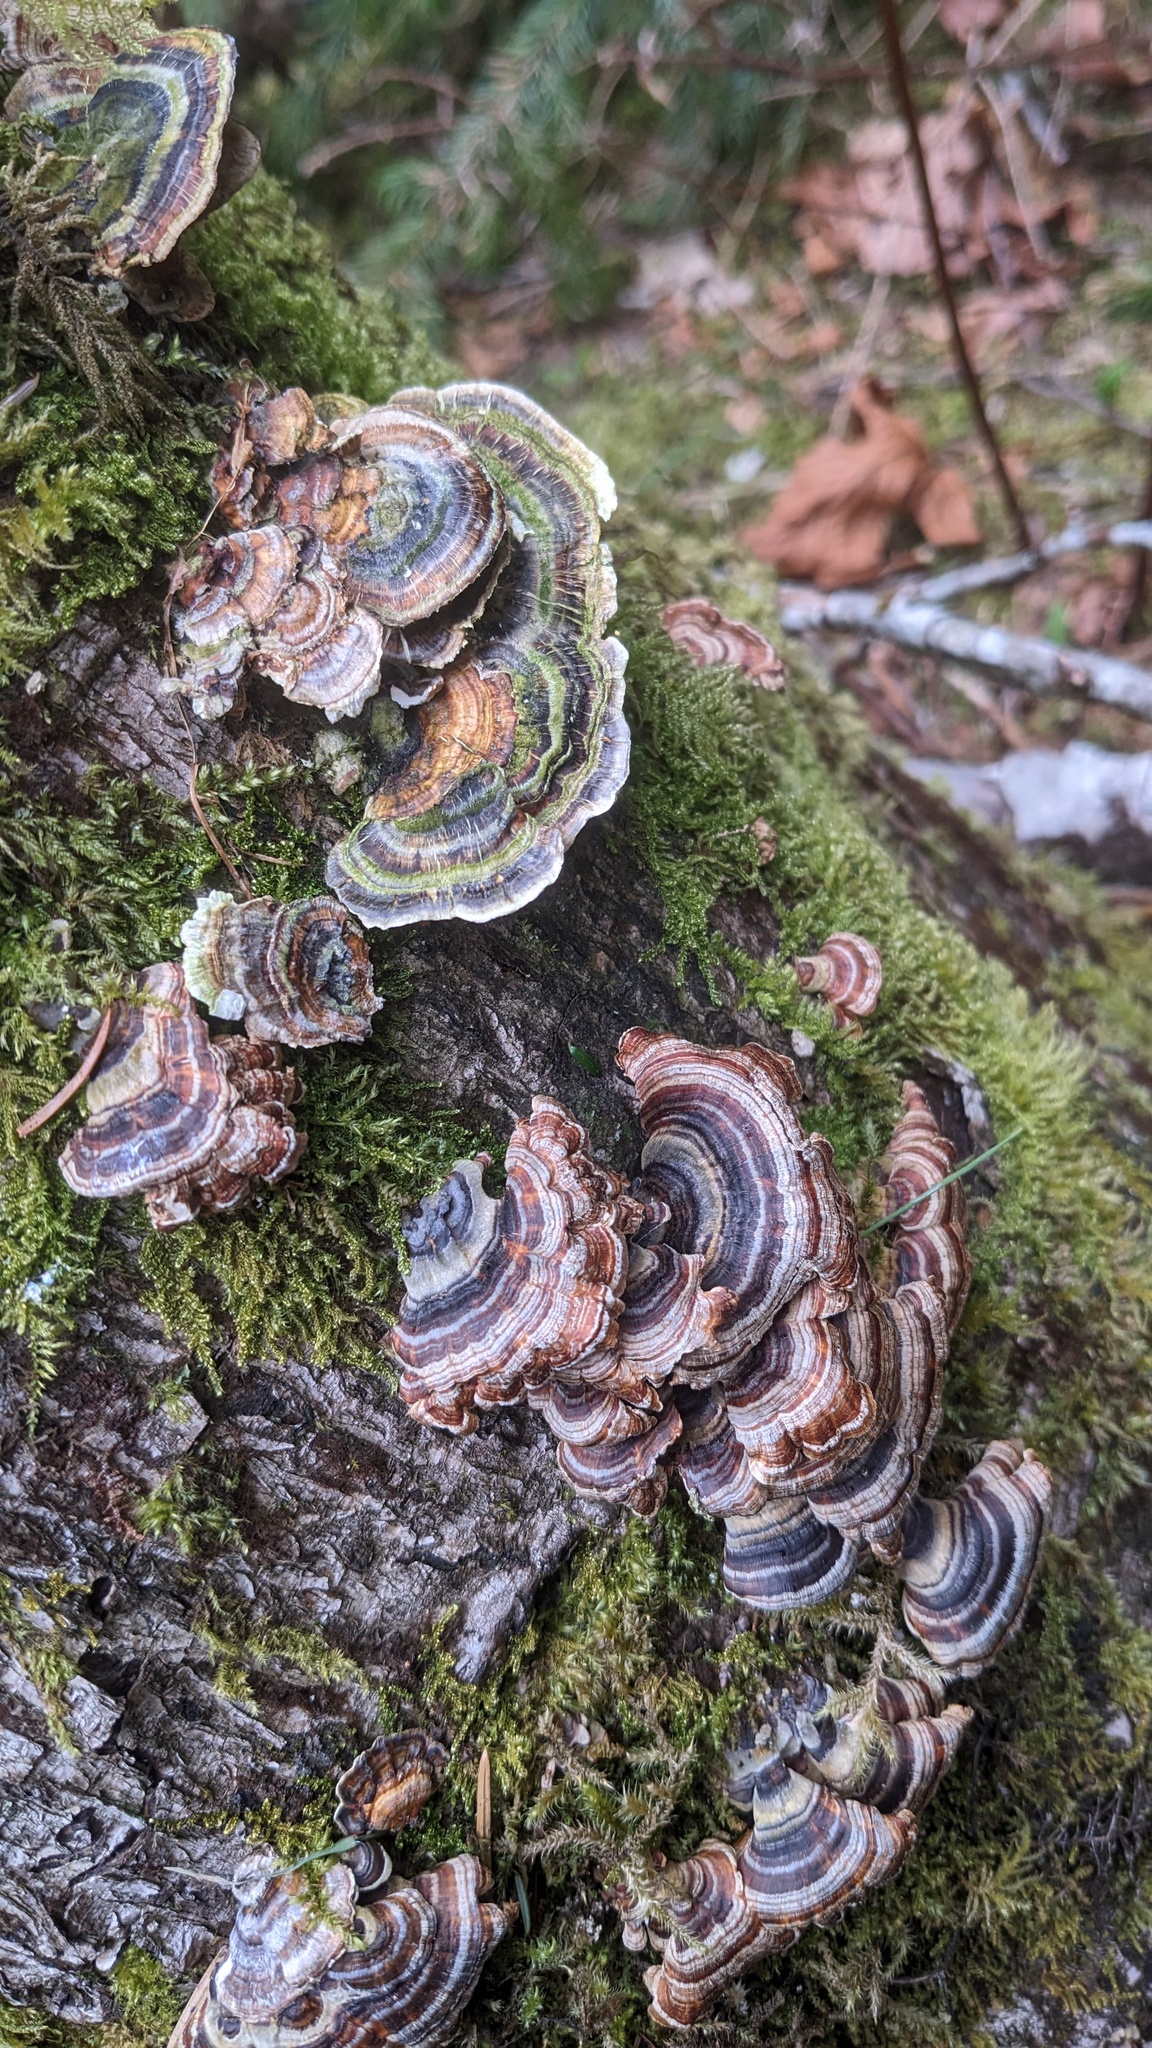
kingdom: Fungi
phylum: Basidiomycota
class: Agaricomycetes
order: Polyporales
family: Polyporaceae
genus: Trametes
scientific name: Trametes versicolor
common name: Turkeytail
